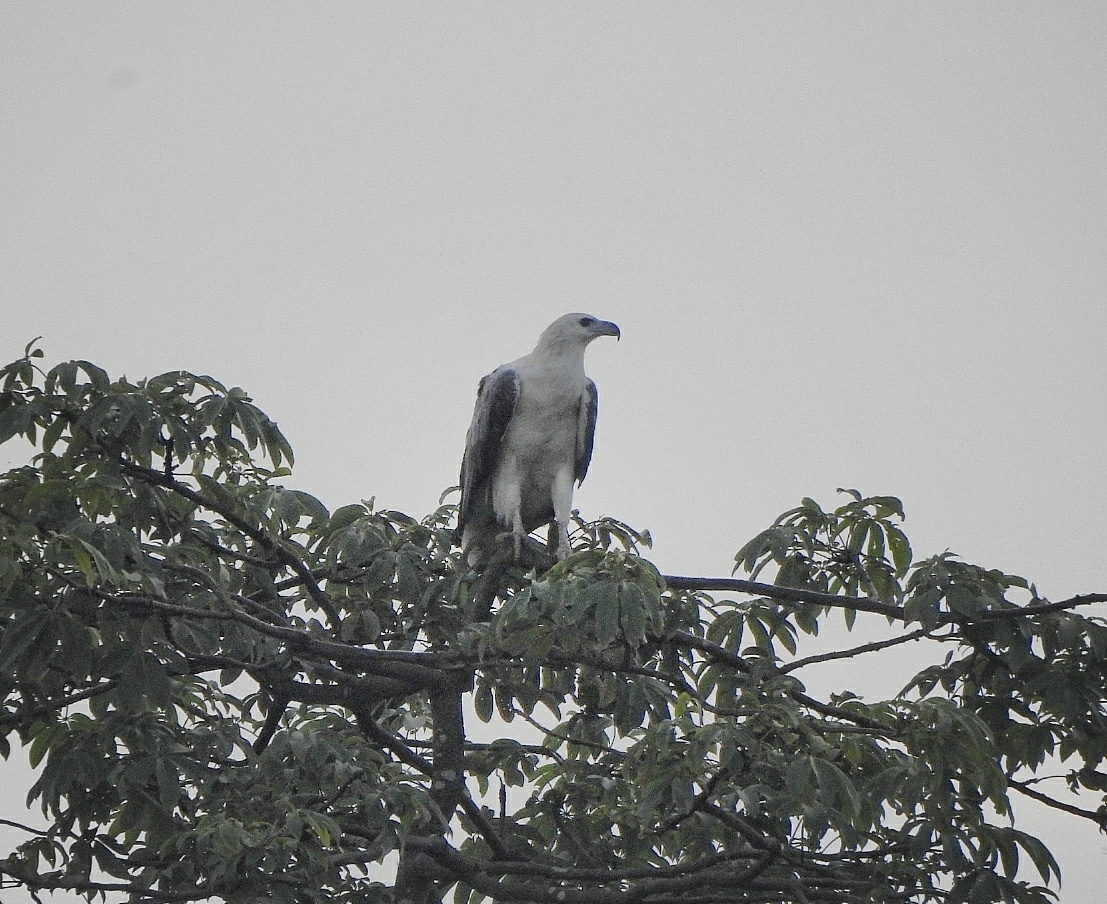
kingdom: Animalia
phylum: Chordata
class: Aves
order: Accipitriformes
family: Accipitridae
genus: Haliaeetus
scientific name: Haliaeetus leucogaster
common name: White-bellied sea eagle
